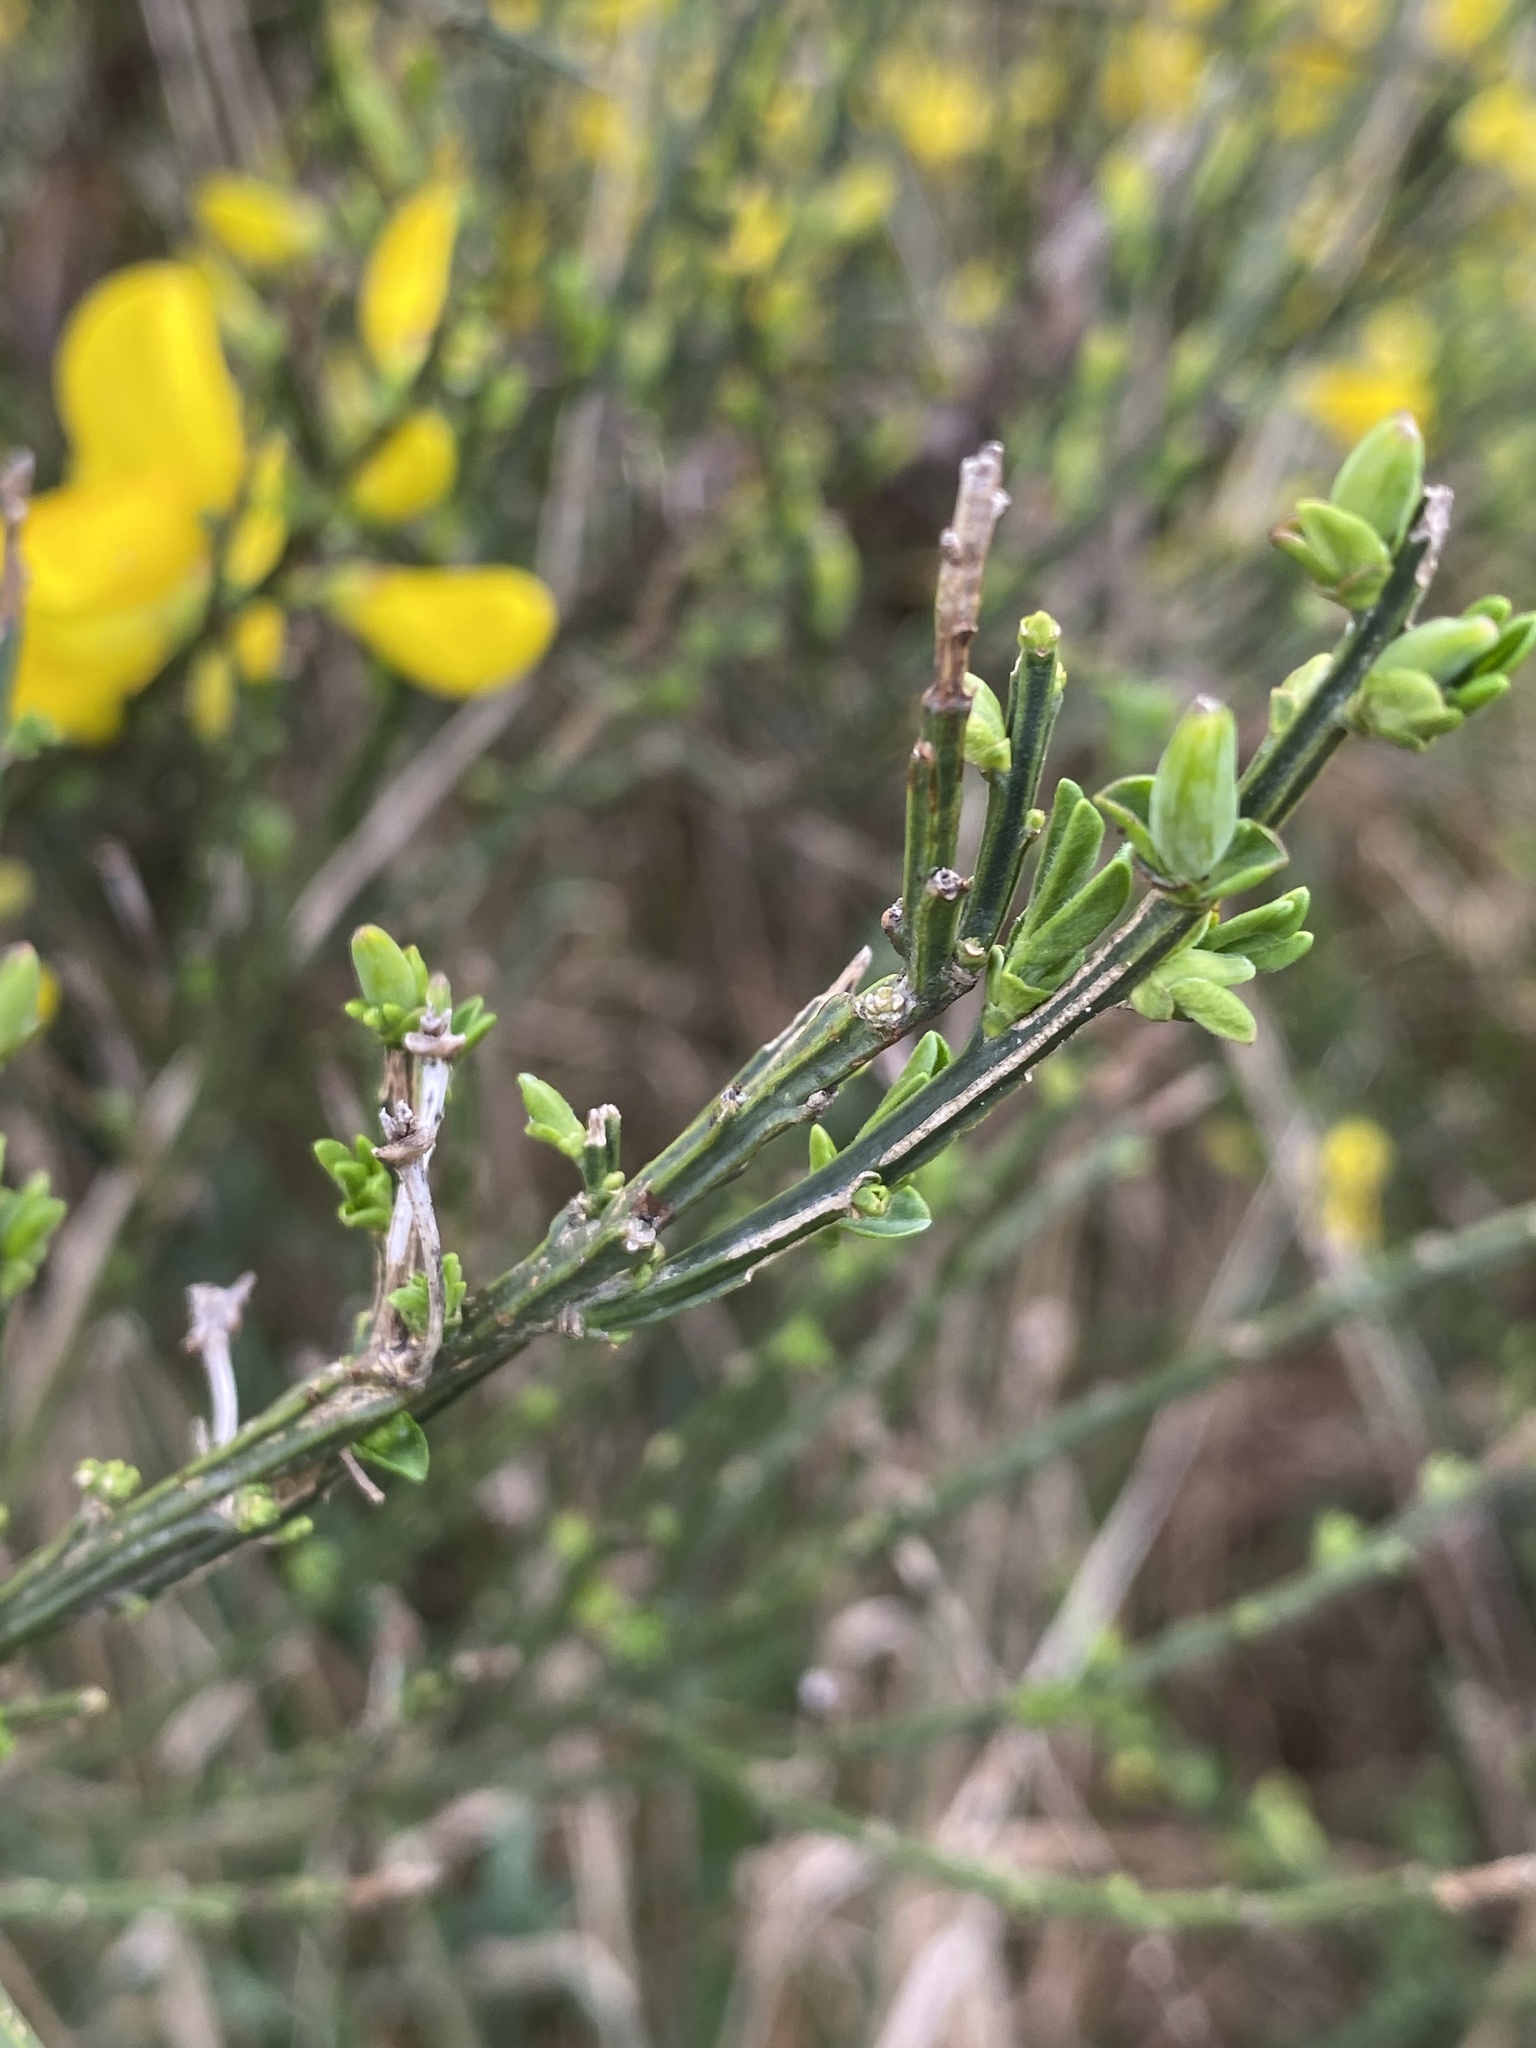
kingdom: Plantae
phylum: Tracheophyta
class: Magnoliopsida
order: Fabales
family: Fabaceae
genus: Cytisus
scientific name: Cytisus scoparius
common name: Scotch broom
